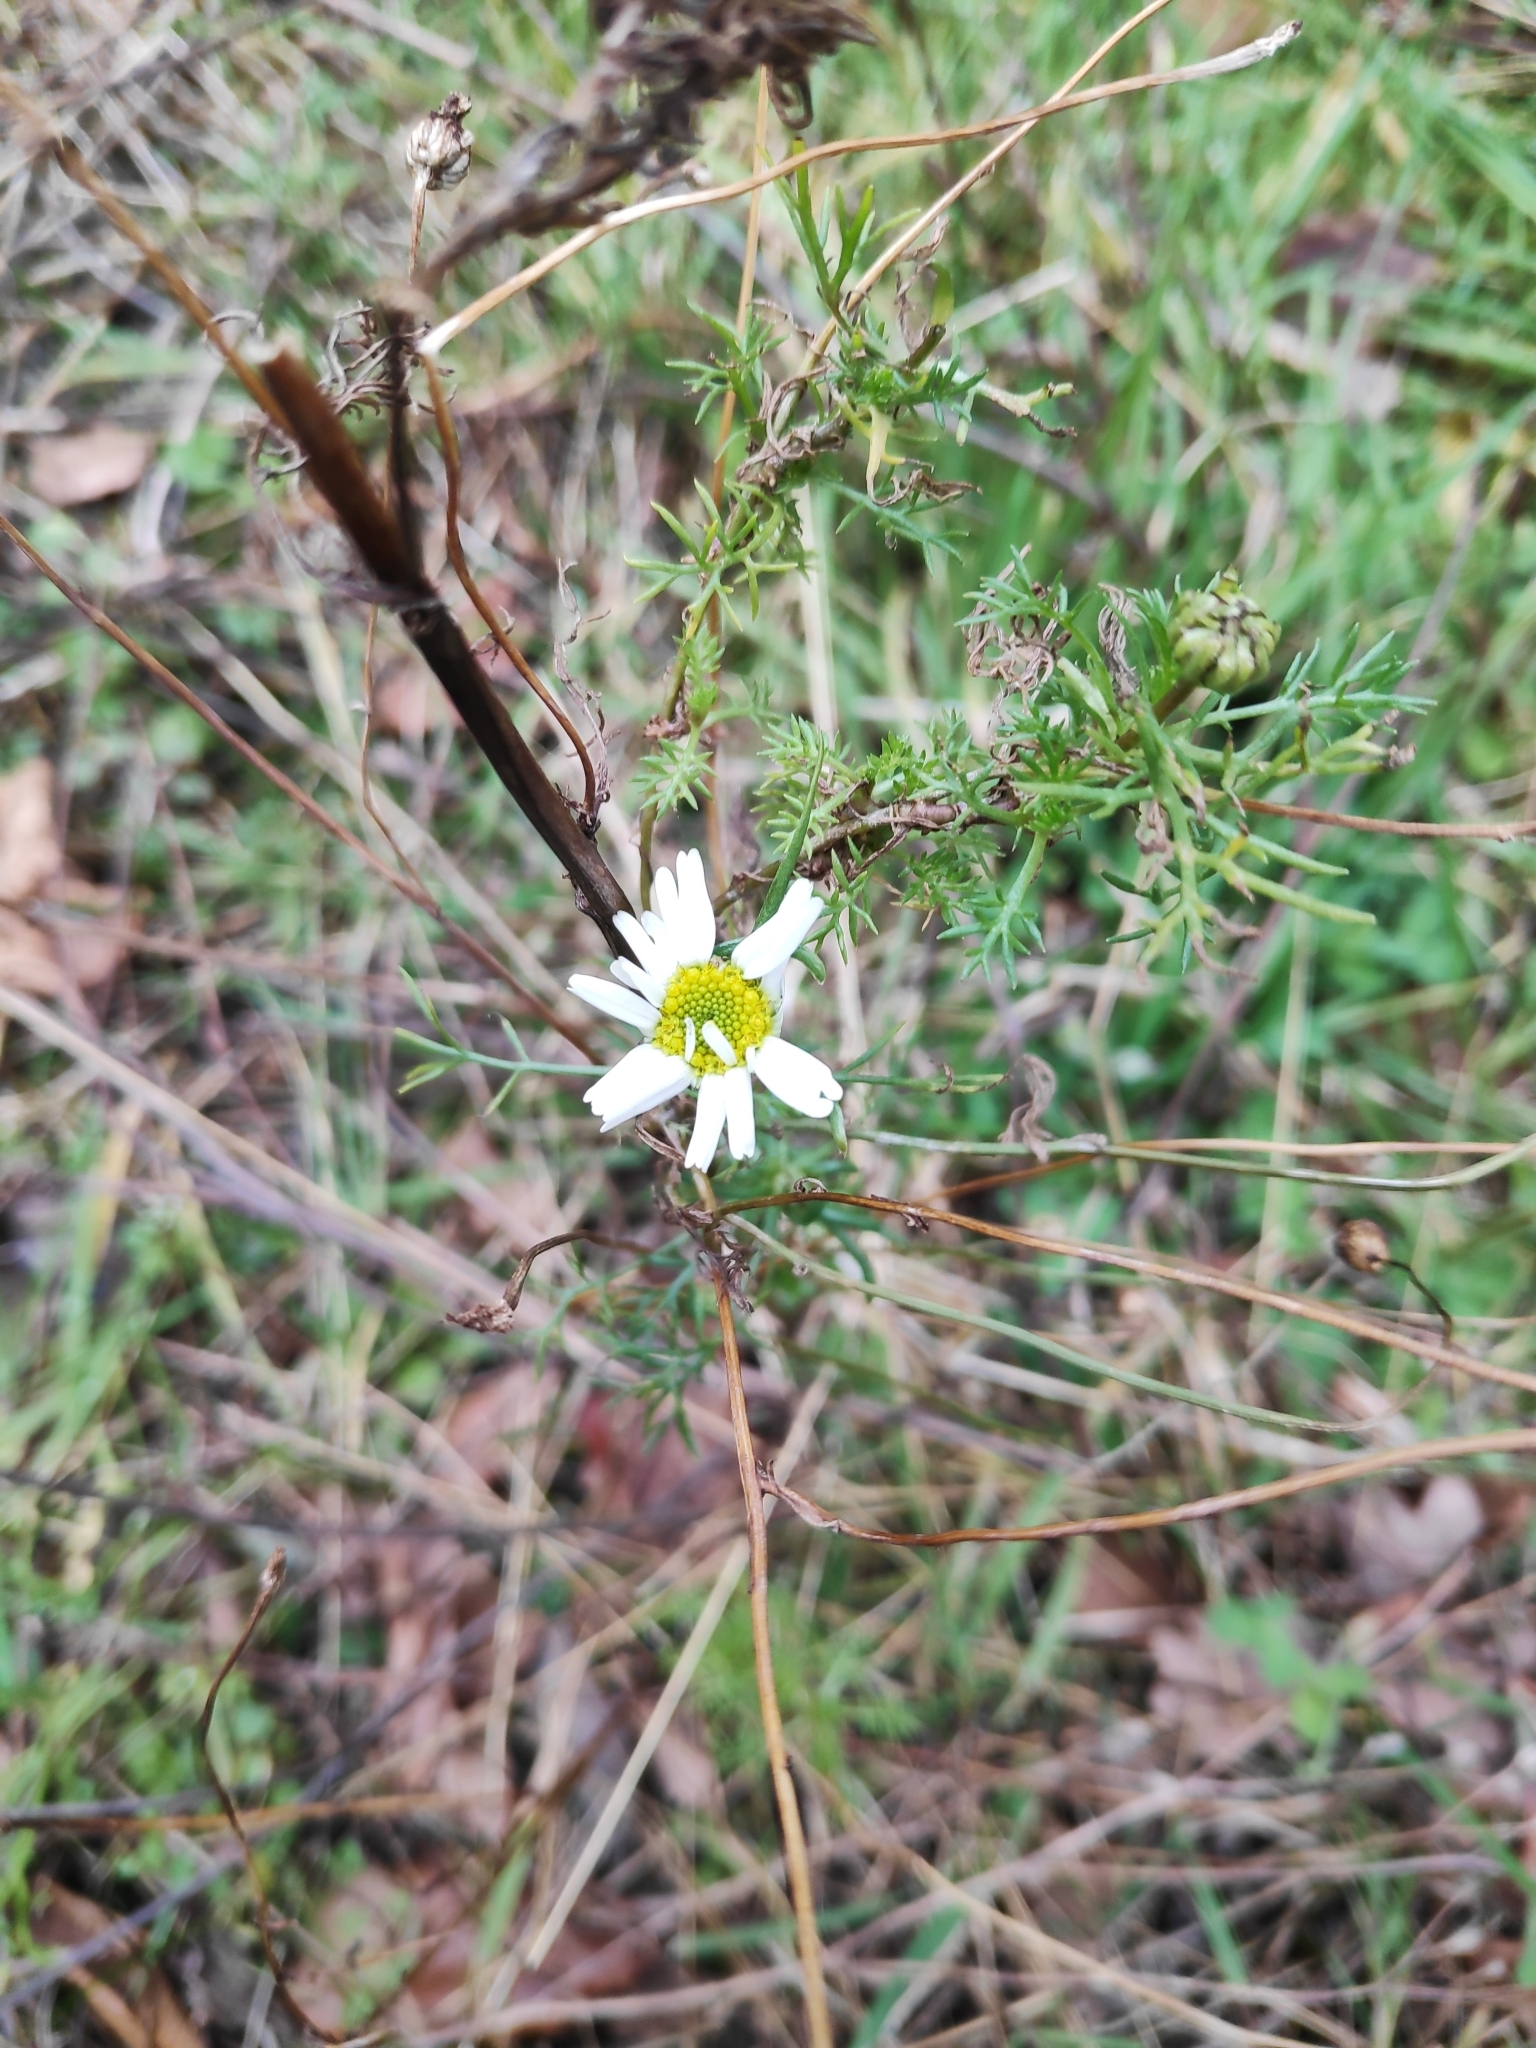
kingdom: Plantae
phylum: Tracheophyta
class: Magnoliopsida
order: Asterales
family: Asteraceae
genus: Chamaemelum
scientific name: Chamaemelum nobile
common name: Roman chamomile
